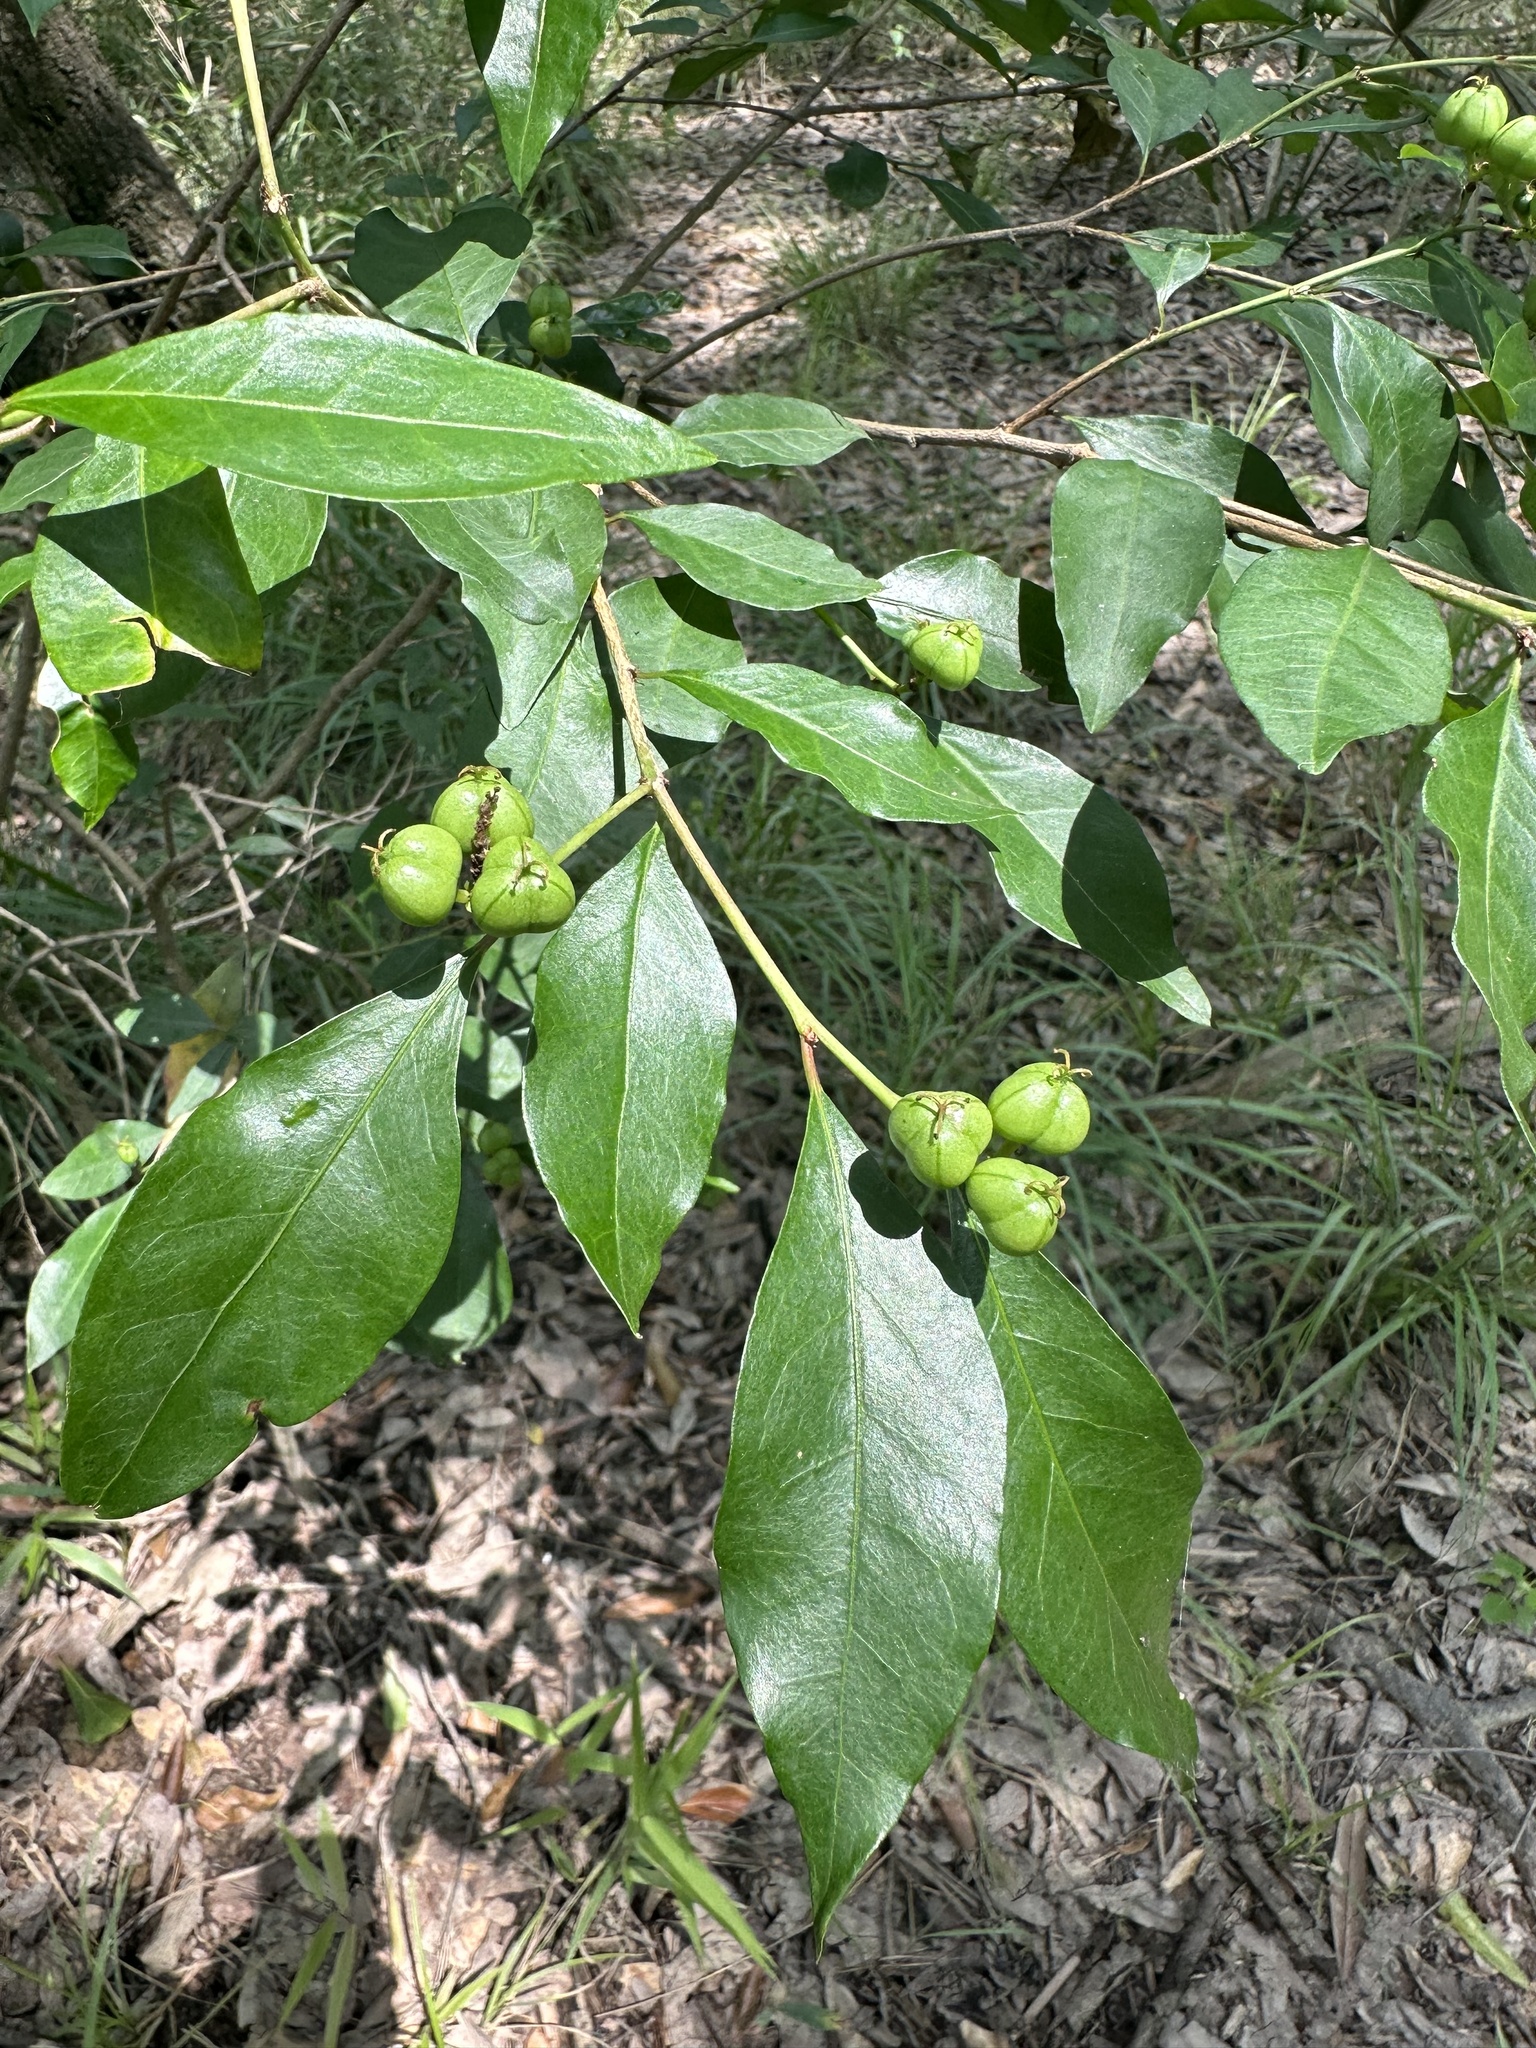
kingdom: Plantae
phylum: Tracheophyta
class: Magnoliopsida
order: Malpighiales
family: Euphorbiaceae
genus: Ditrysinia
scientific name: Ditrysinia fruticosa
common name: Gulf sebastian-bush
